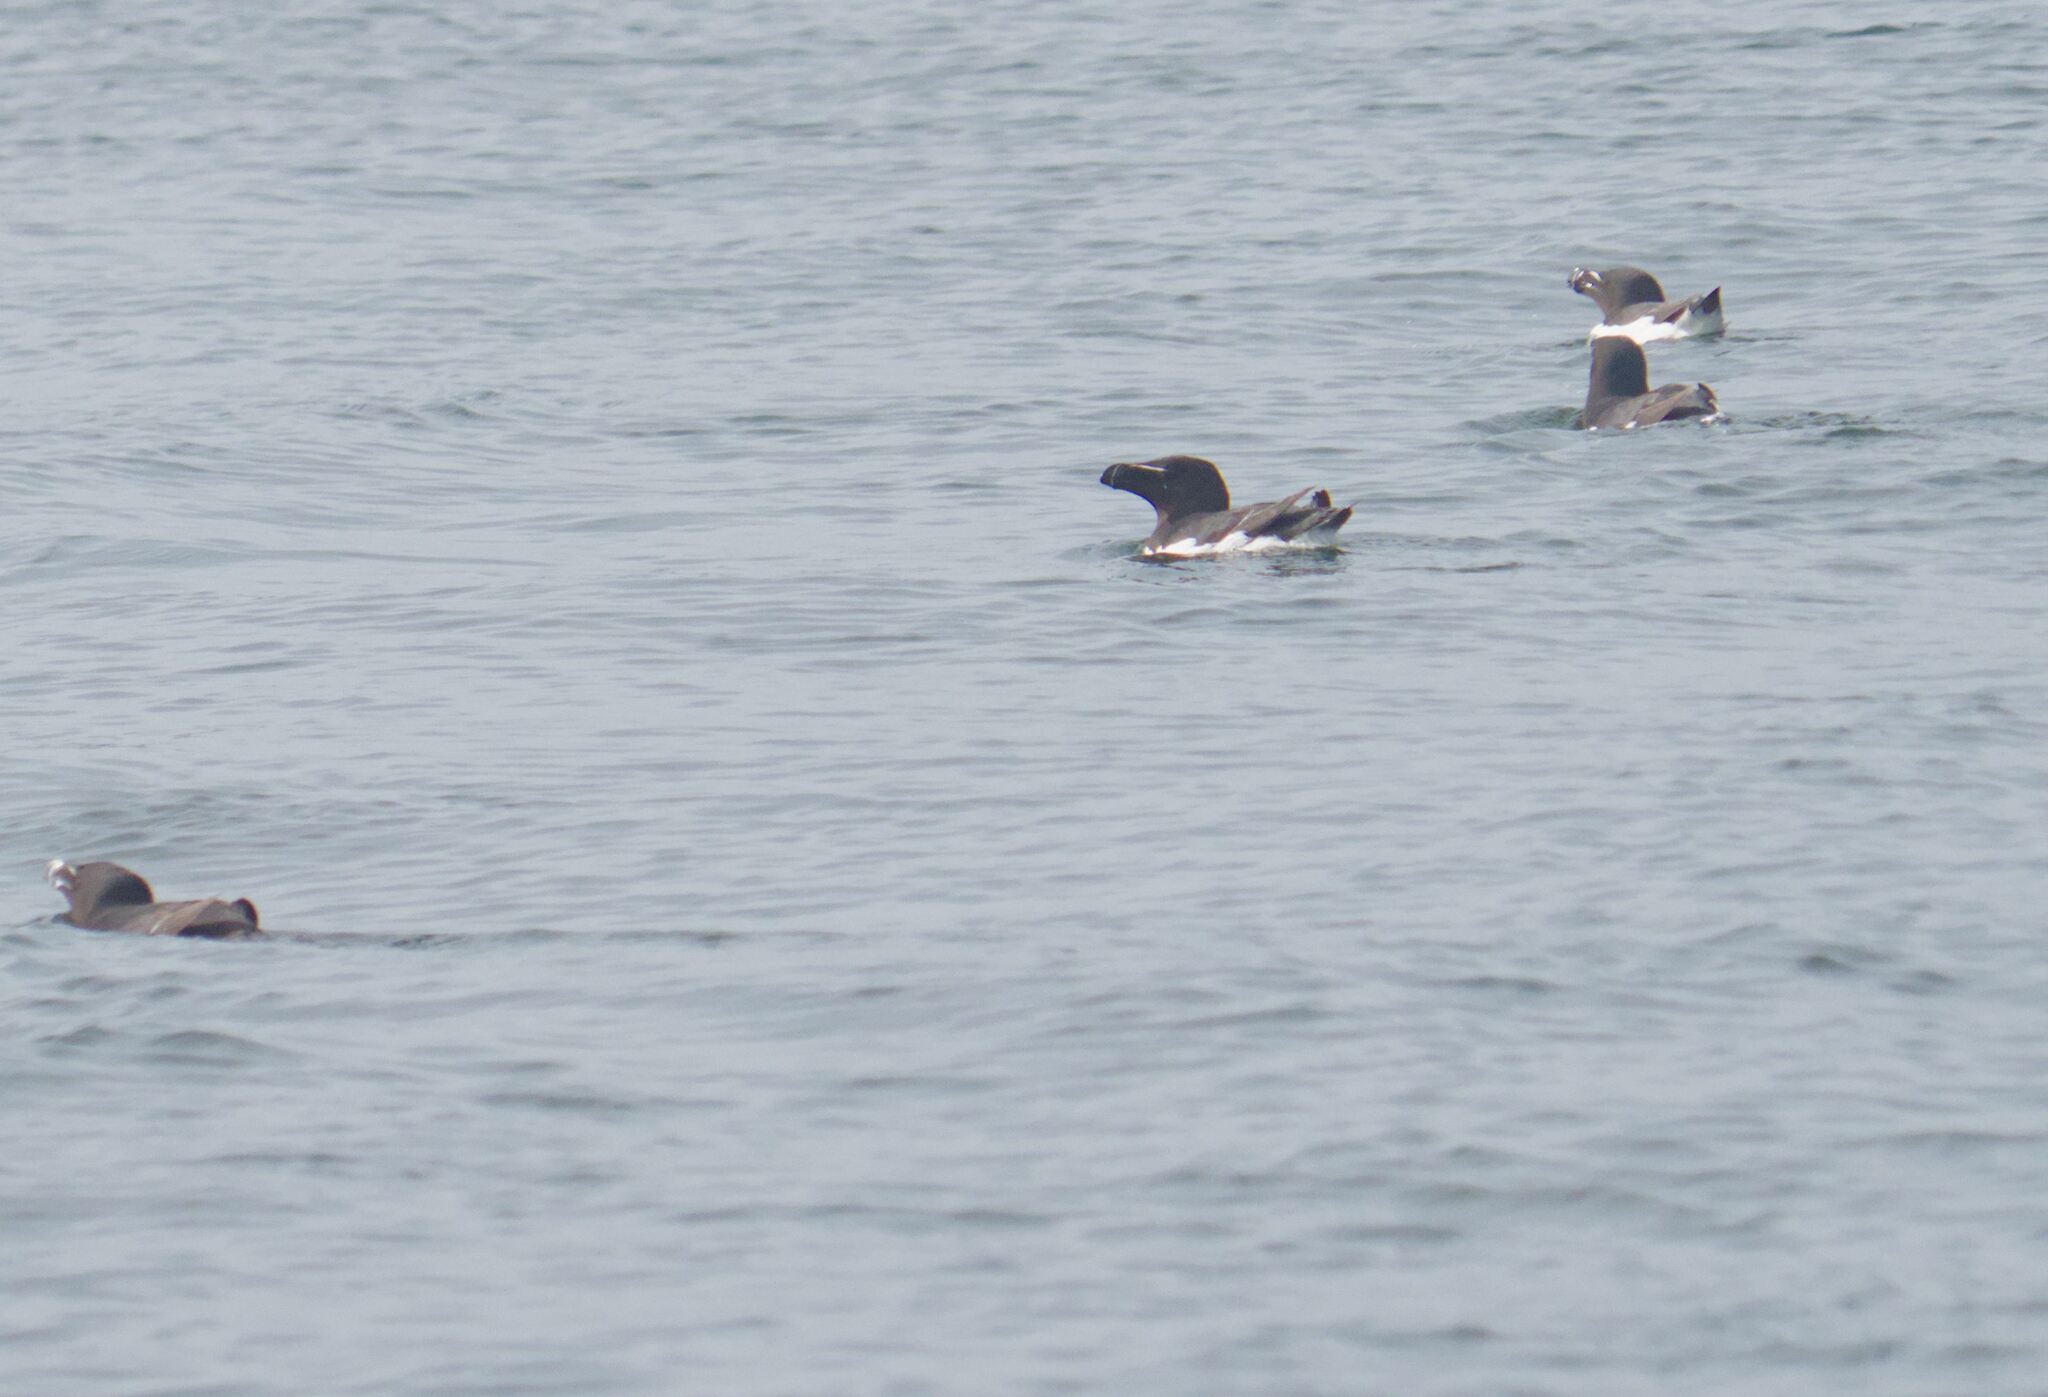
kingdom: Animalia
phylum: Chordata
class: Aves
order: Charadriiformes
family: Alcidae
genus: Alca
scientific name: Alca torda
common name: Razorbill
